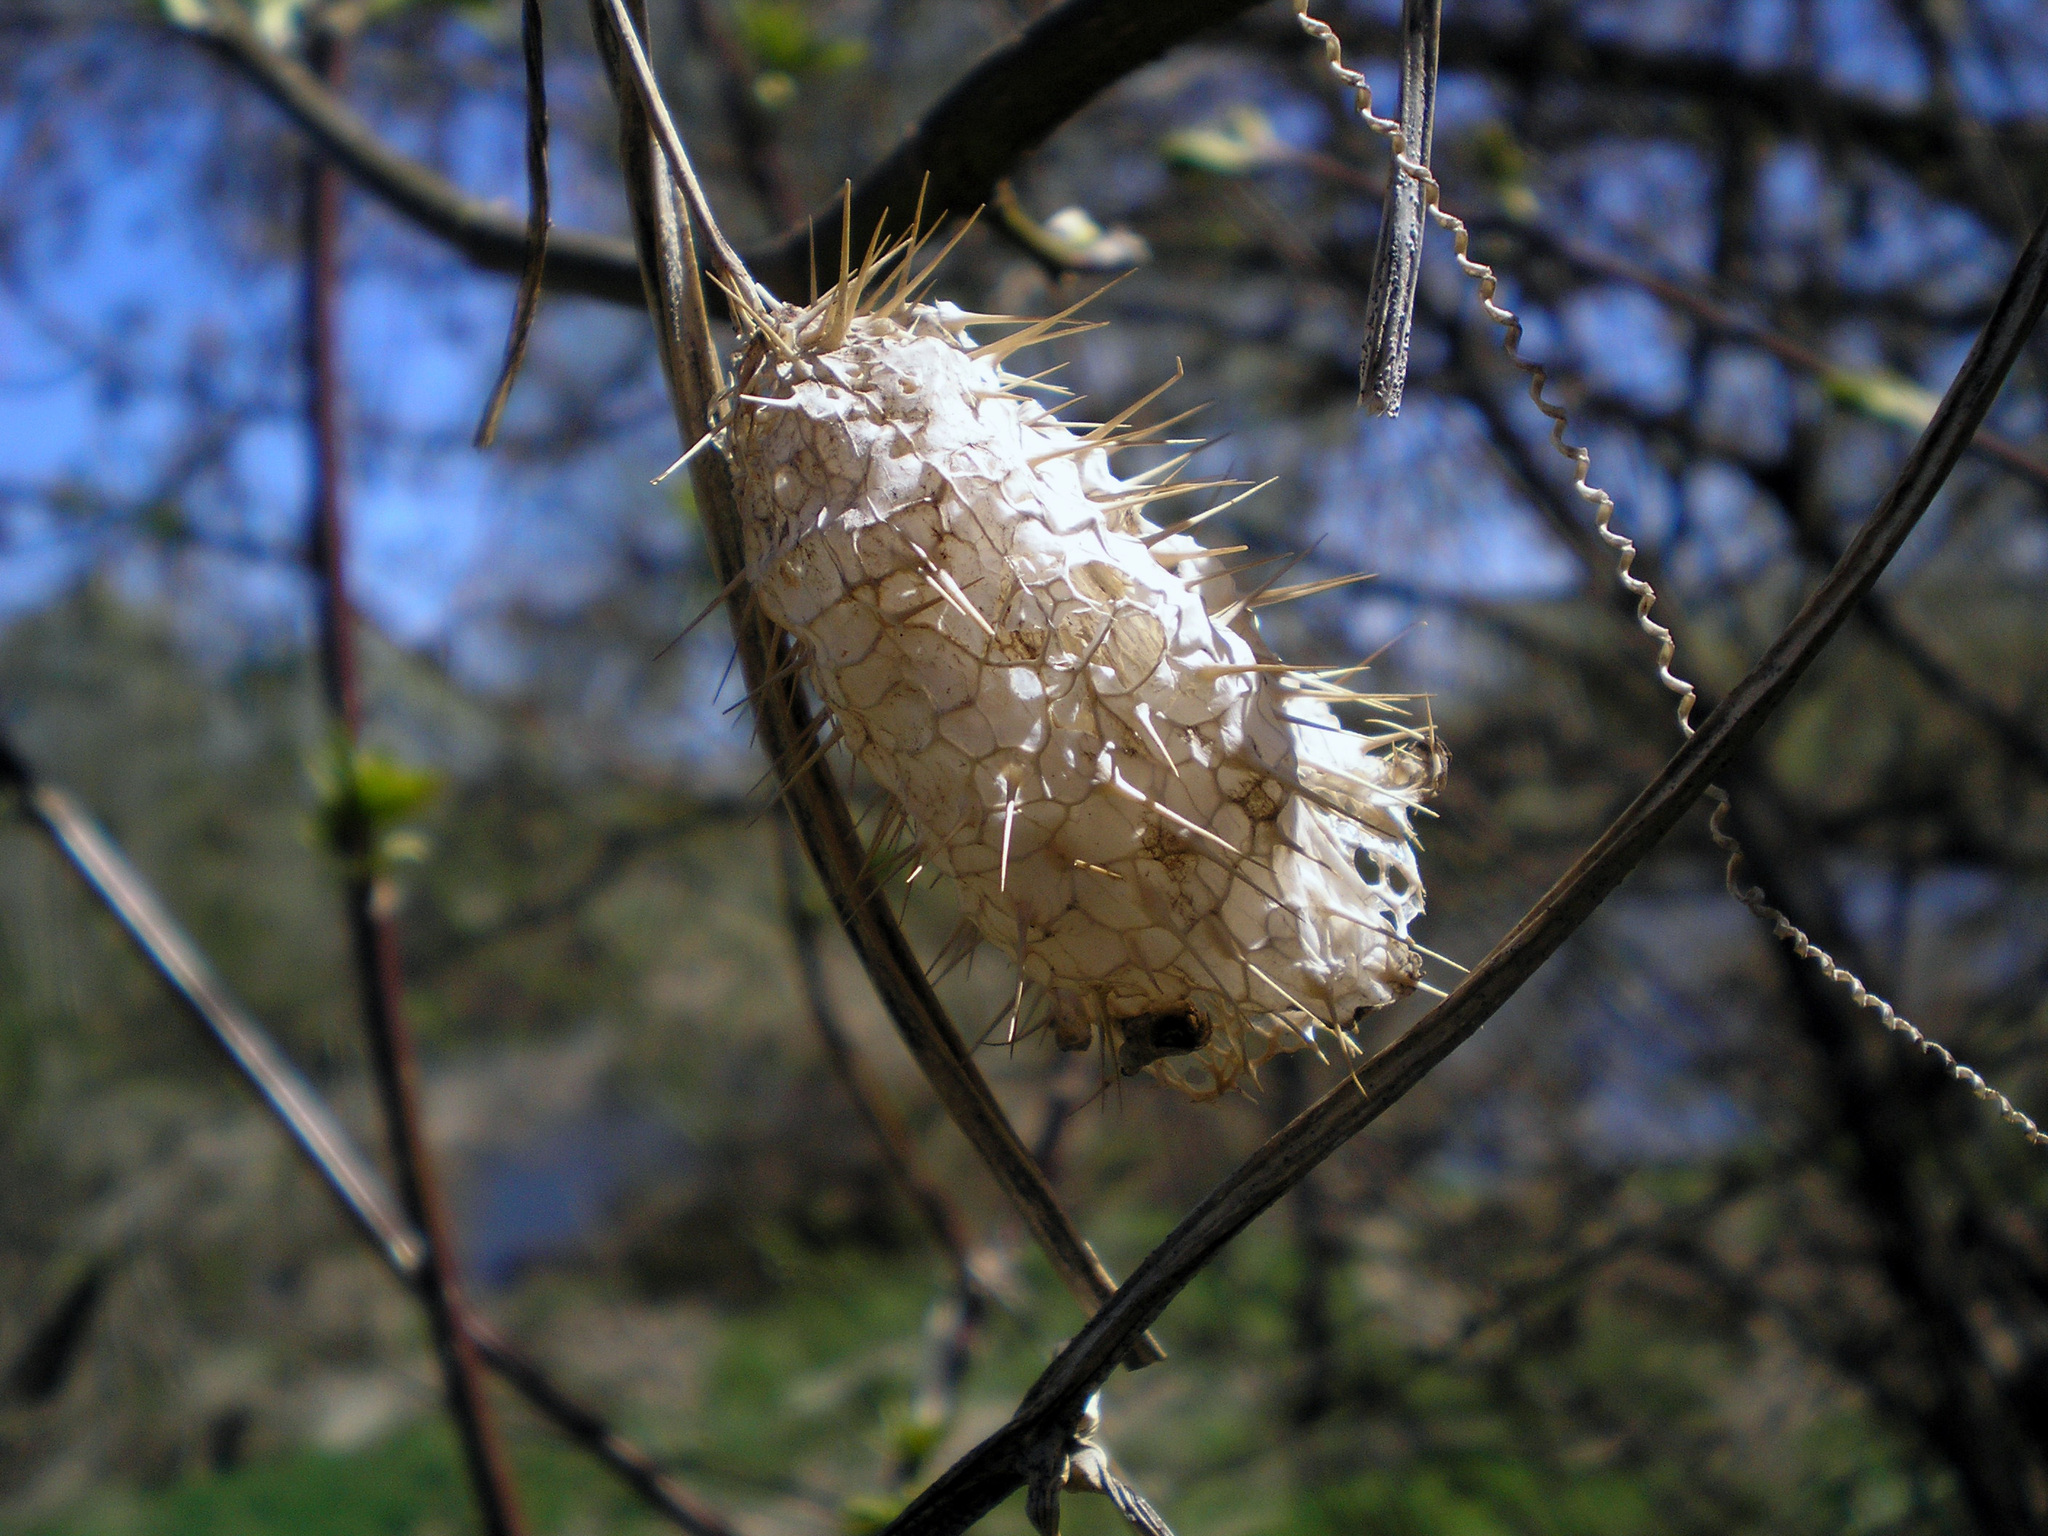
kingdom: Plantae
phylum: Tracheophyta
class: Magnoliopsida
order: Cucurbitales
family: Cucurbitaceae
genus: Echinocystis
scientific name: Echinocystis lobata
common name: Wild cucumber
